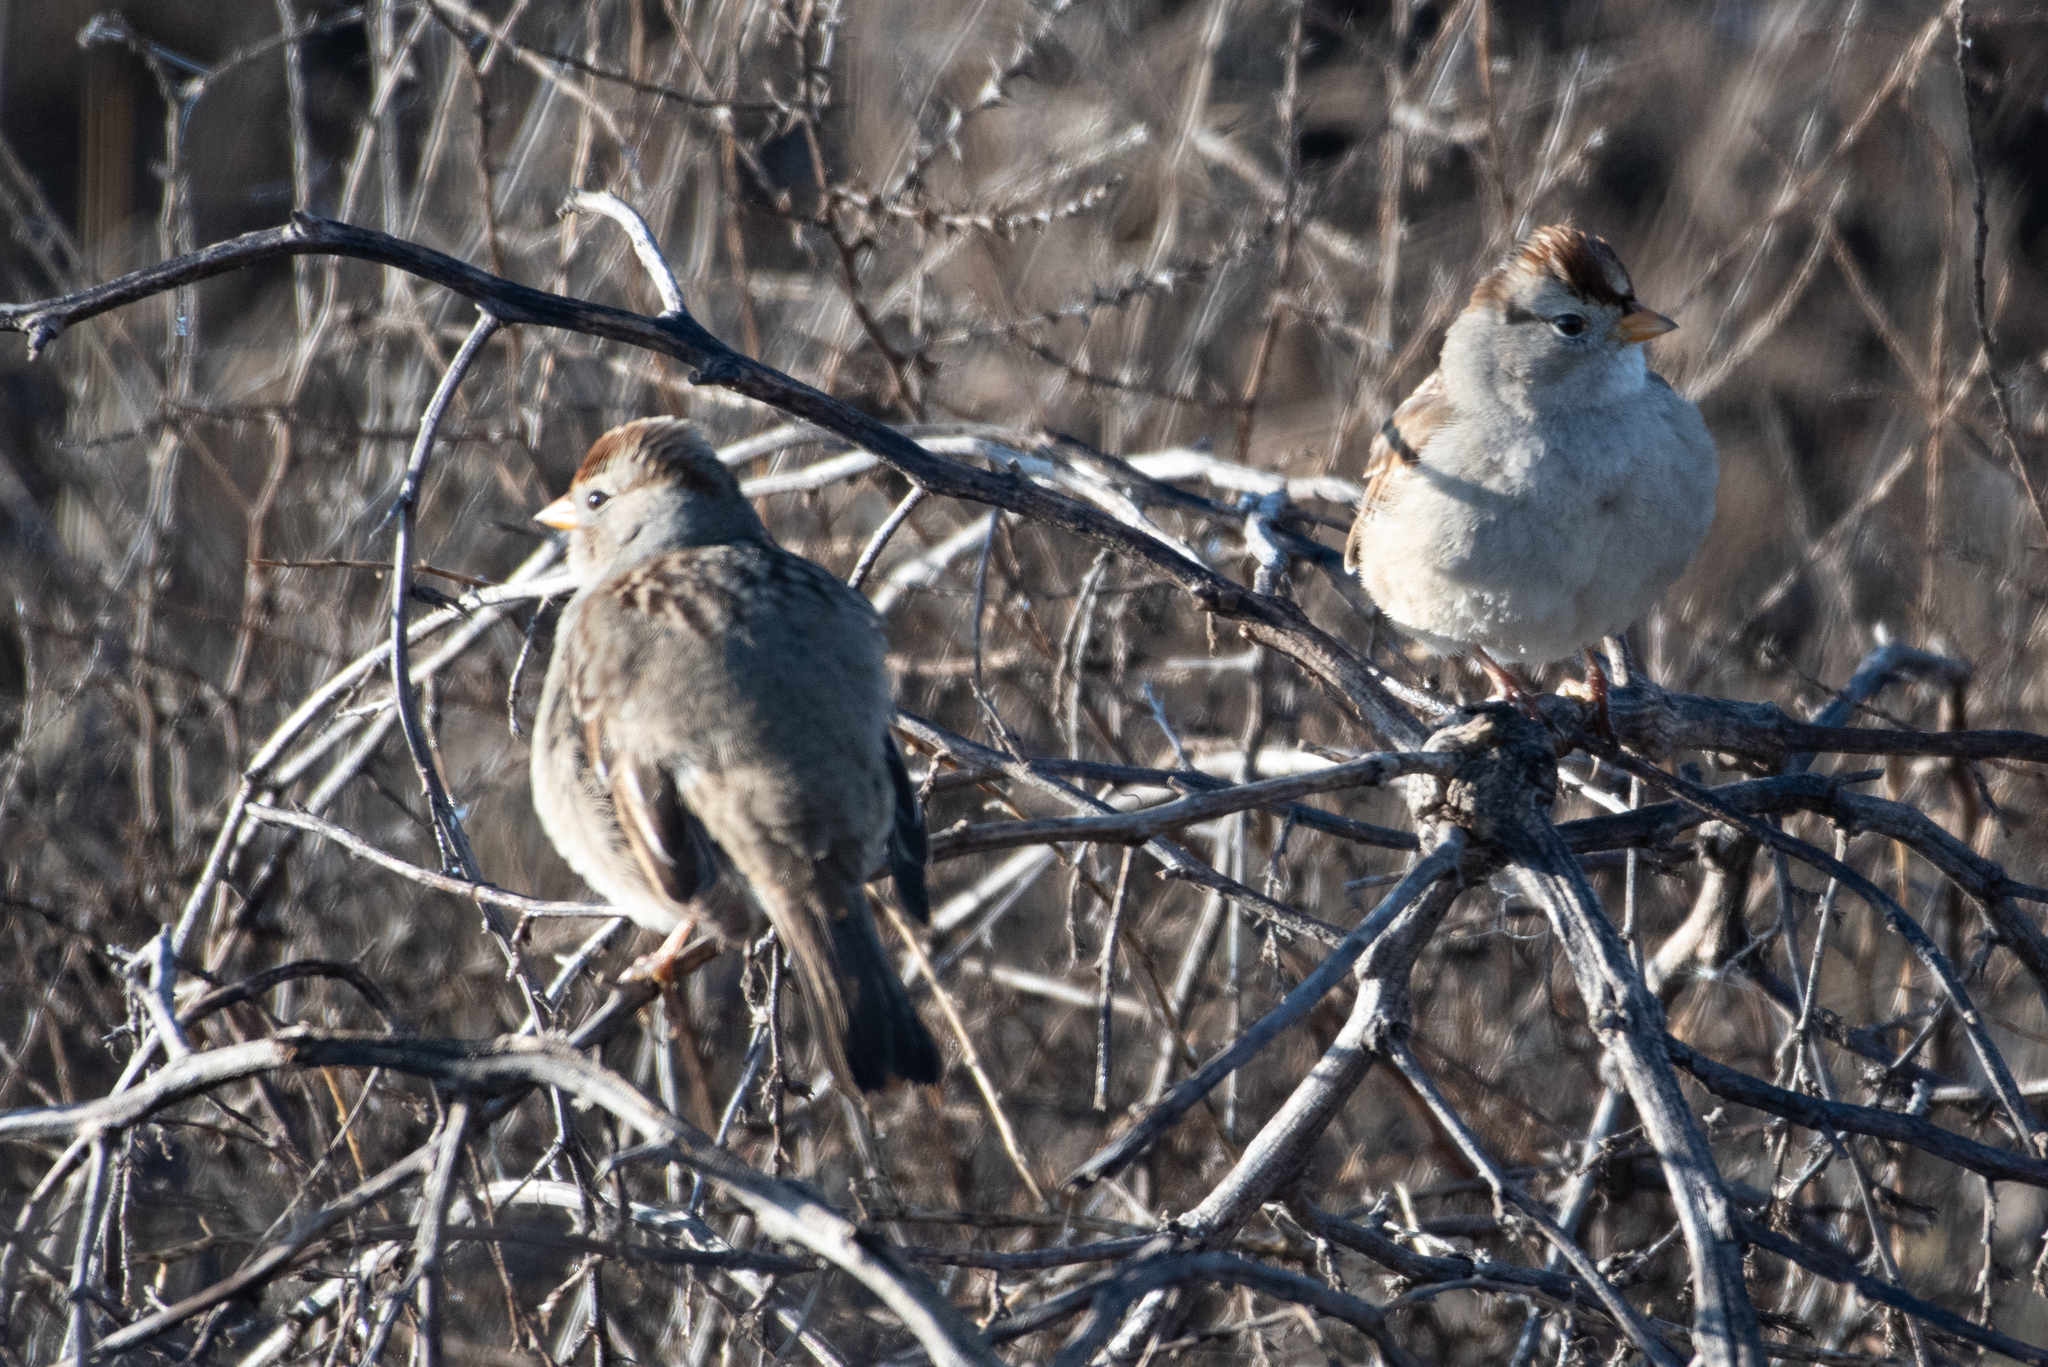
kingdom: Animalia
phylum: Chordata
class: Aves
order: Passeriformes
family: Passerellidae
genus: Zonotrichia
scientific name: Zonotrichia leucophrys
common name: White-crowned sparrow
